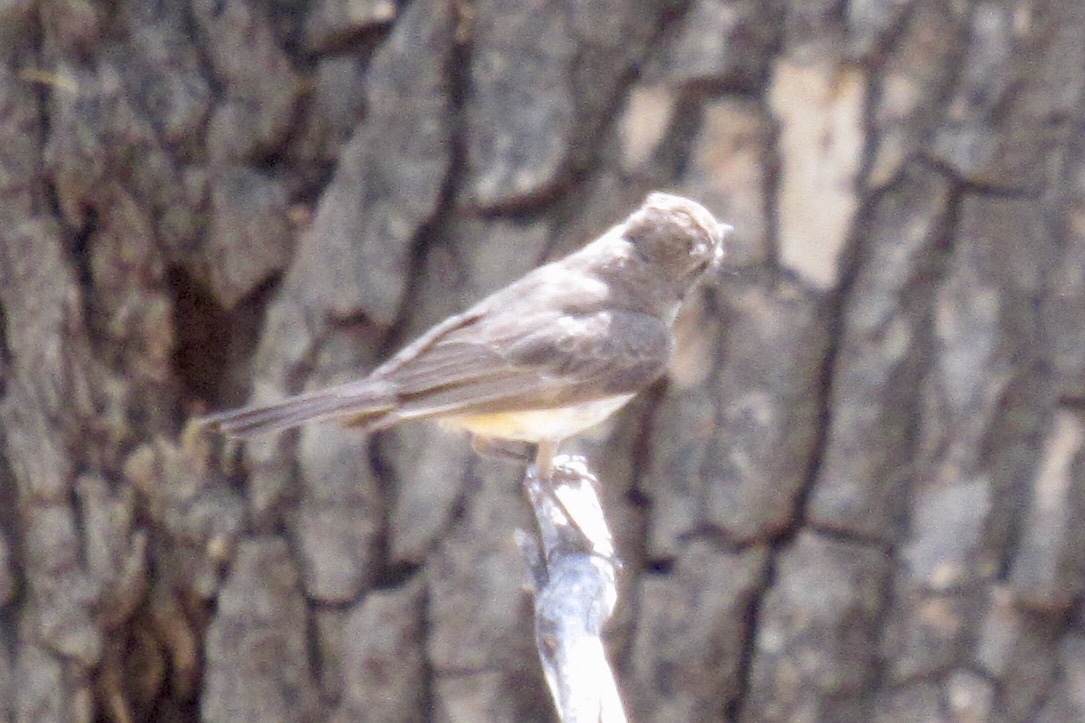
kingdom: Animalia
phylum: Chordata
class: Aves
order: Passeriformes
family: Tyrannidae
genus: Pyrocephalus
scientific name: Pyrocephalus rubinus
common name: Vermilion flycatcher
